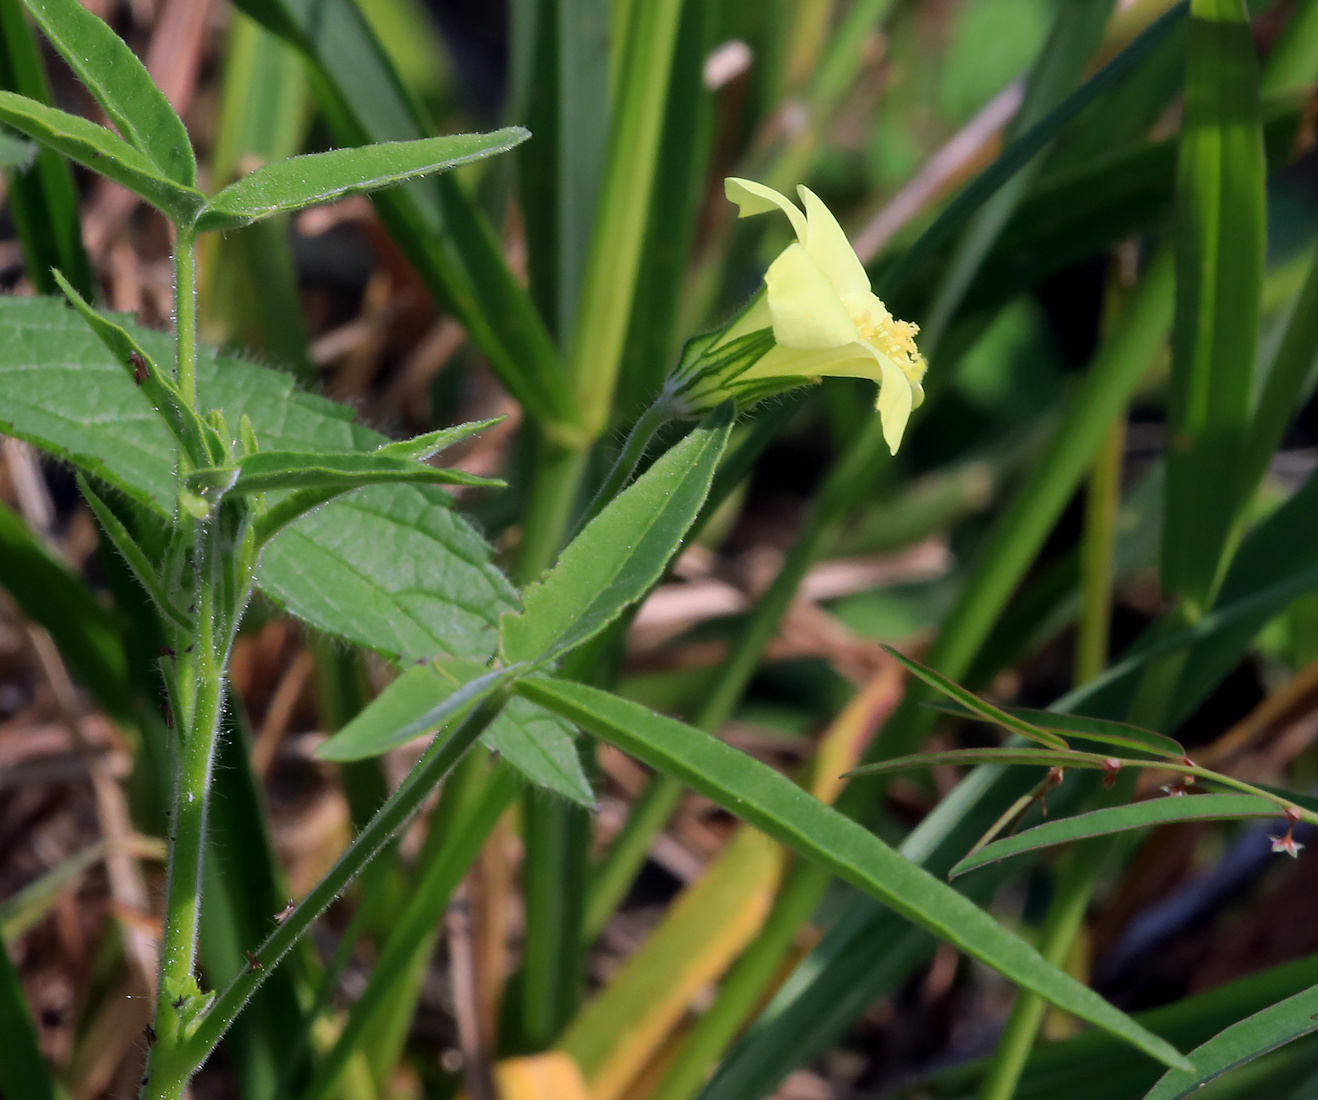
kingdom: Plantae
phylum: Tracheophyta
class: Magnoliopsida
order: Malvales
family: Malvaceae
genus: Hibiscus
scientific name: Hibiscus sidiformis
